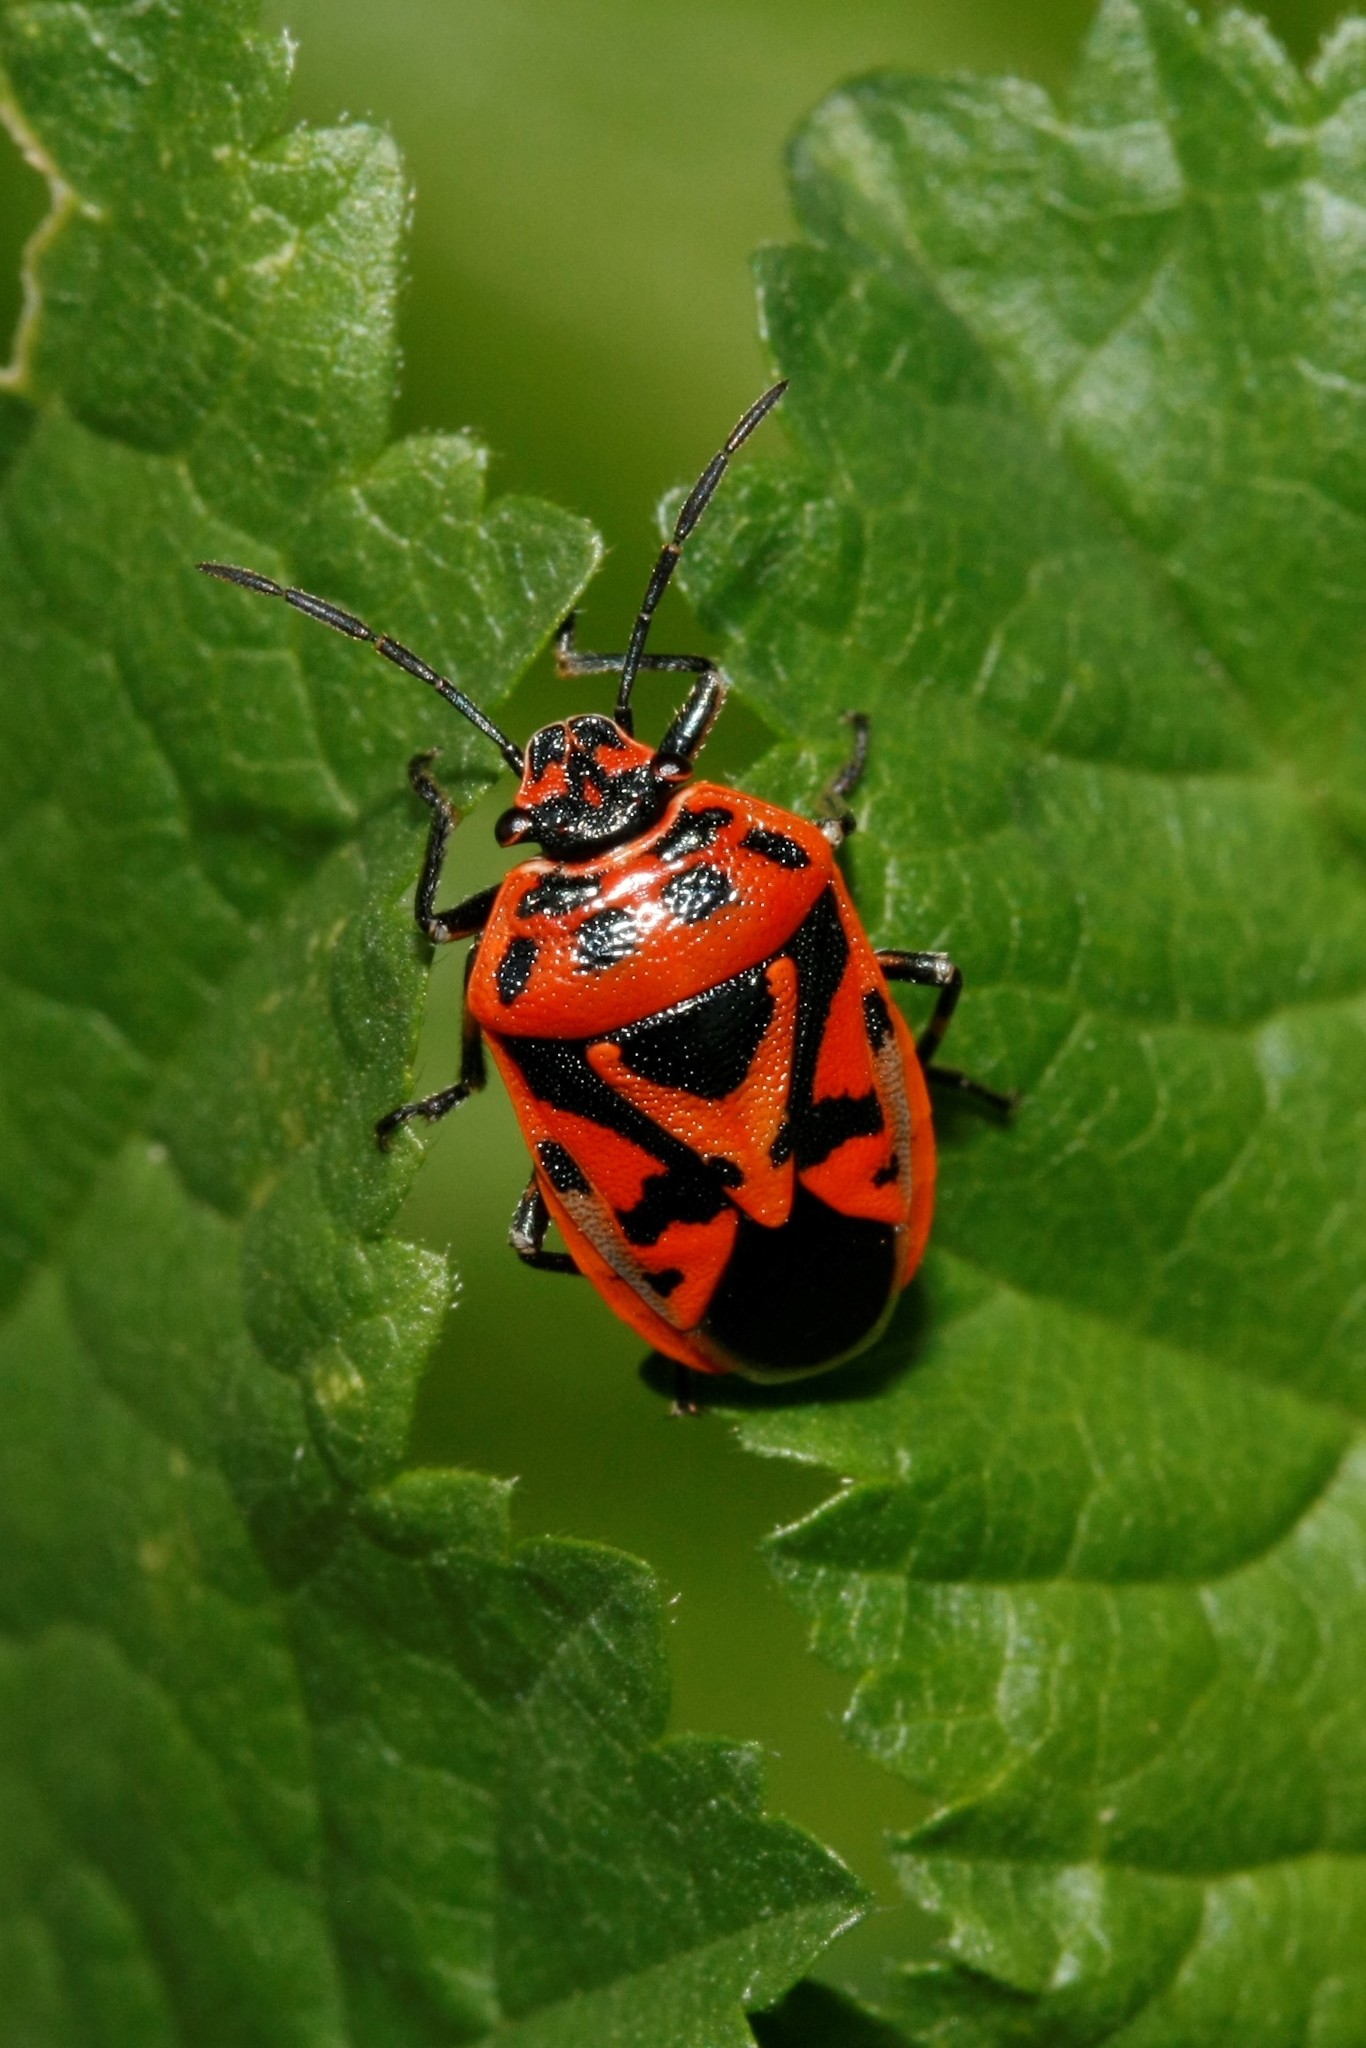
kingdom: Animalia
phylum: Arthropoda
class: Insecta
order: Hemiptera
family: Pentatomidae
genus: Eurydema
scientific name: Eurydema ornata
